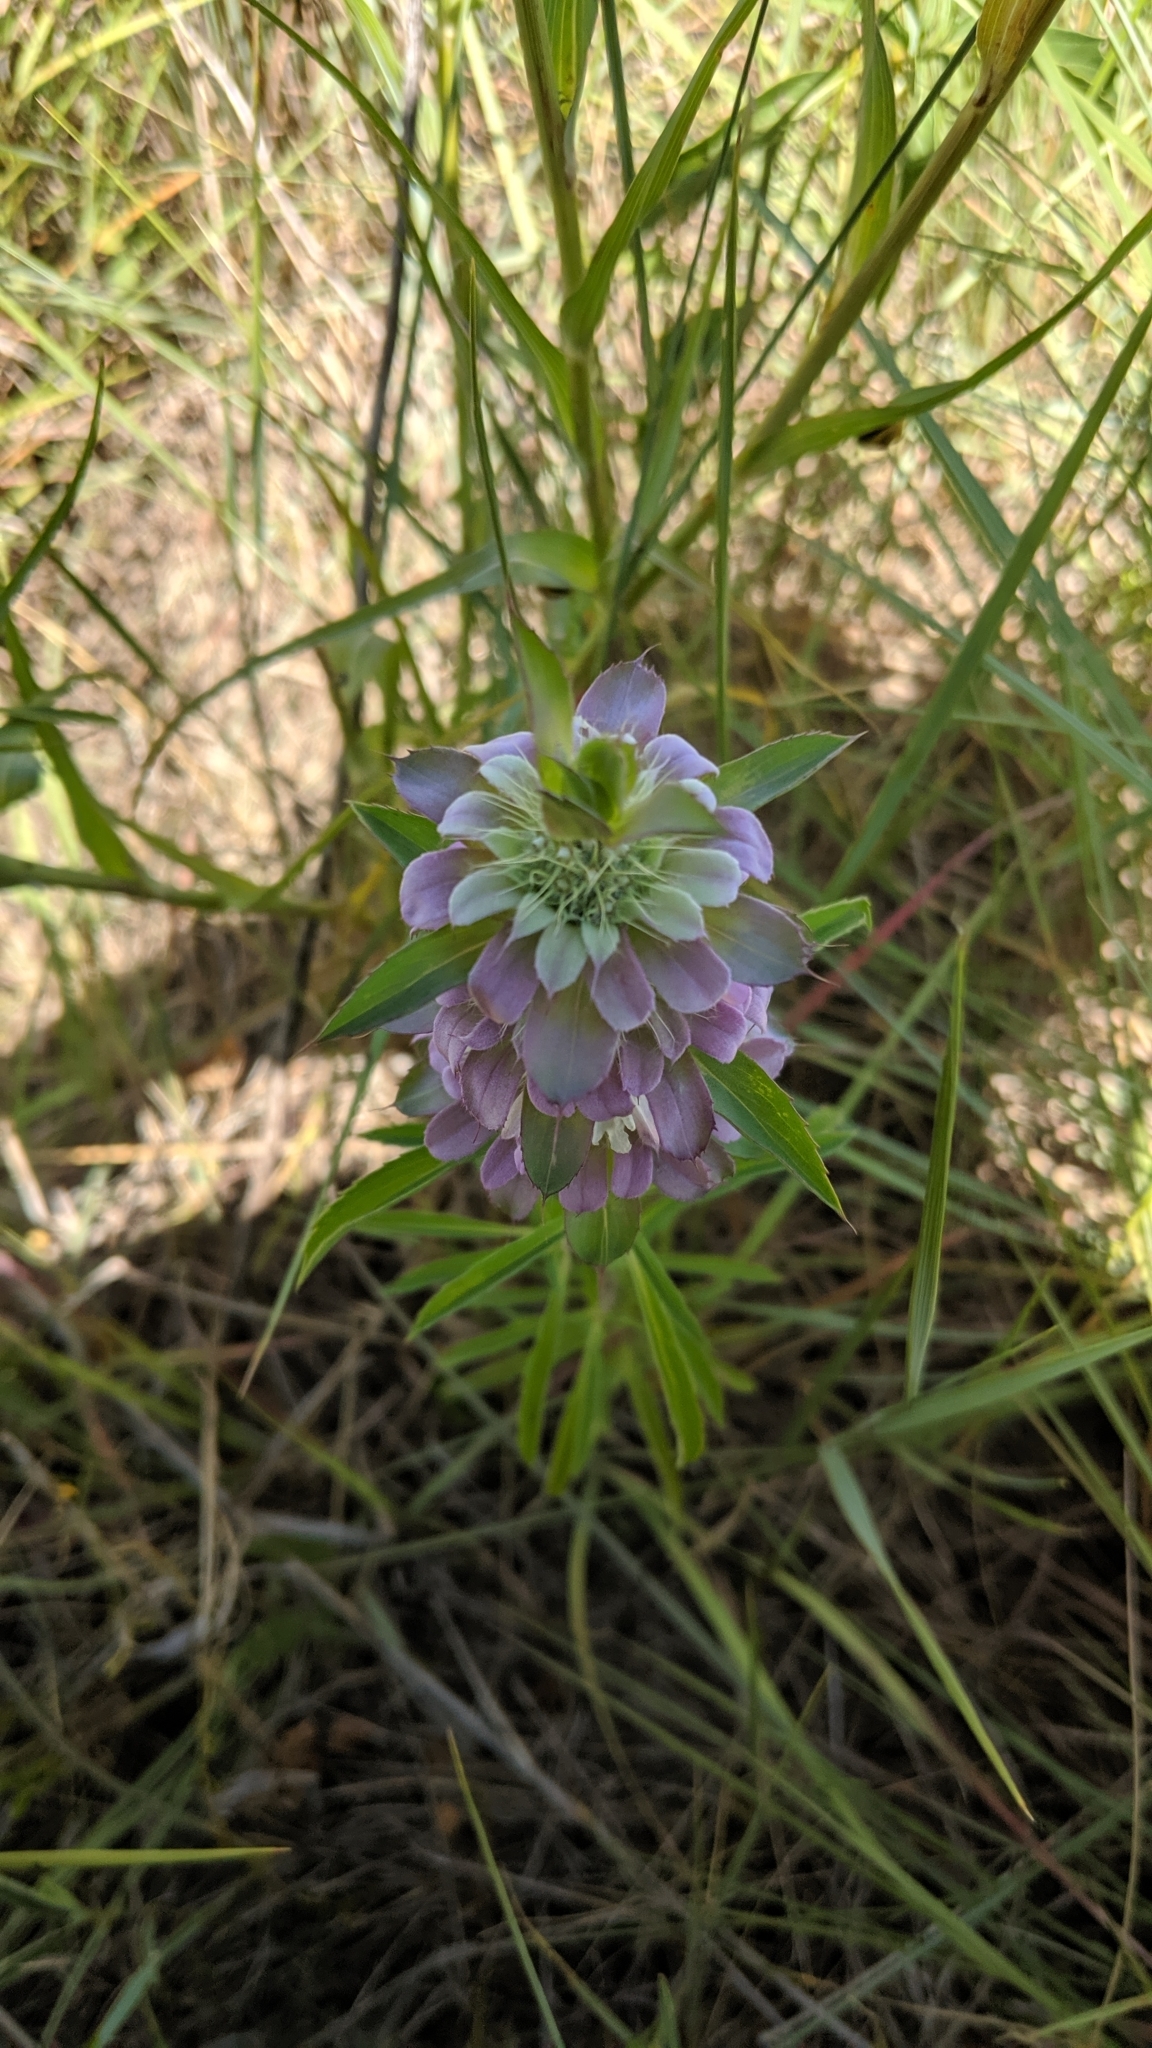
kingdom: Plantae
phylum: Tracheophyta
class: Magnoliopsida
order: Lamiales
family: Lamiaceae
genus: Monarda
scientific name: Monarda citriodora
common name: Lemon beebalm
